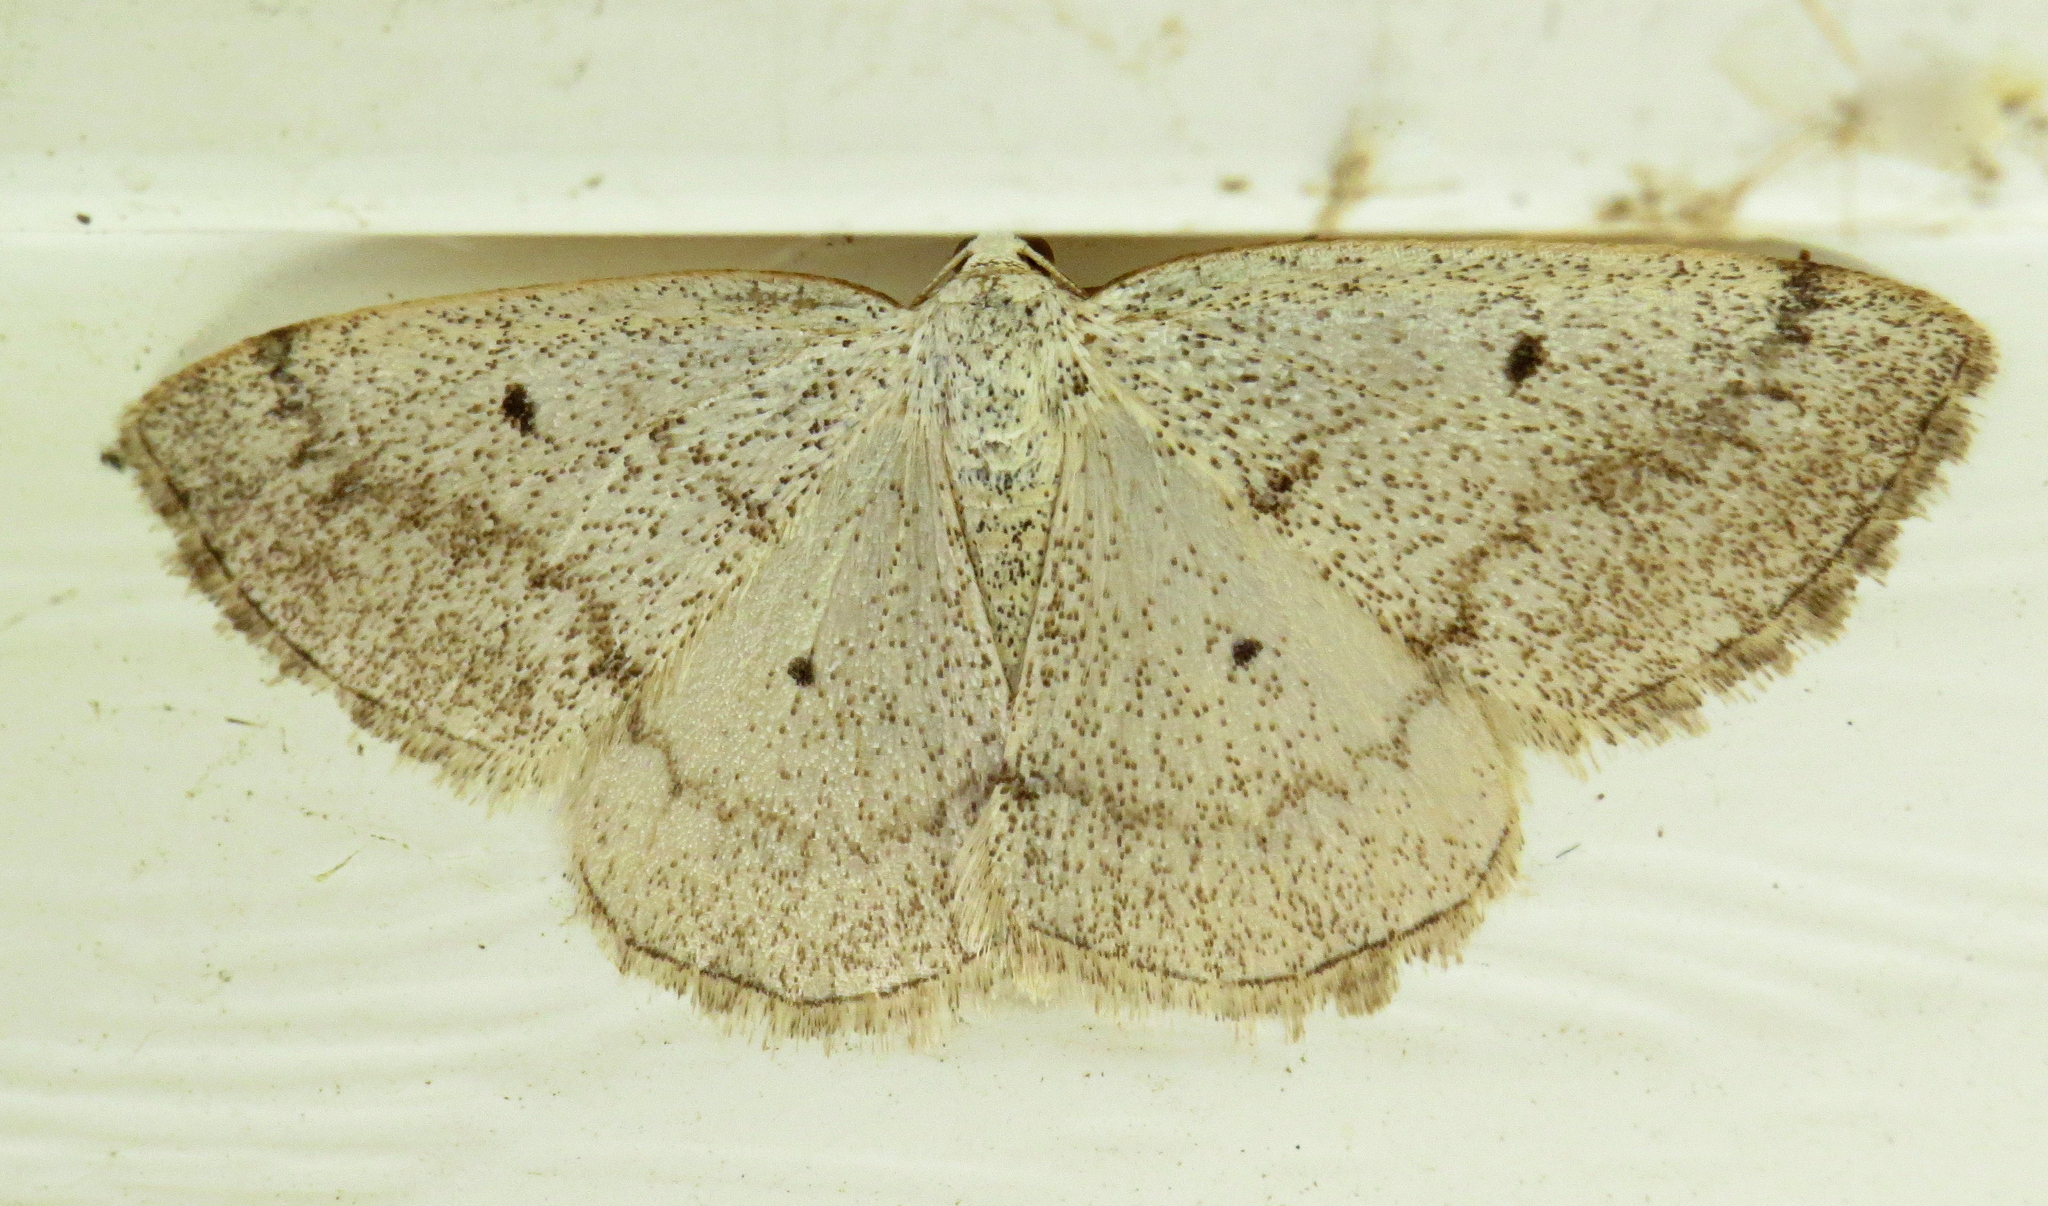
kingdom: Animalia
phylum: Arthropoda
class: Insecta
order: Lepidoptera
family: Geometridae
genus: Lomographa
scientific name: Lomographa glomeraria
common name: Gray spring moth
